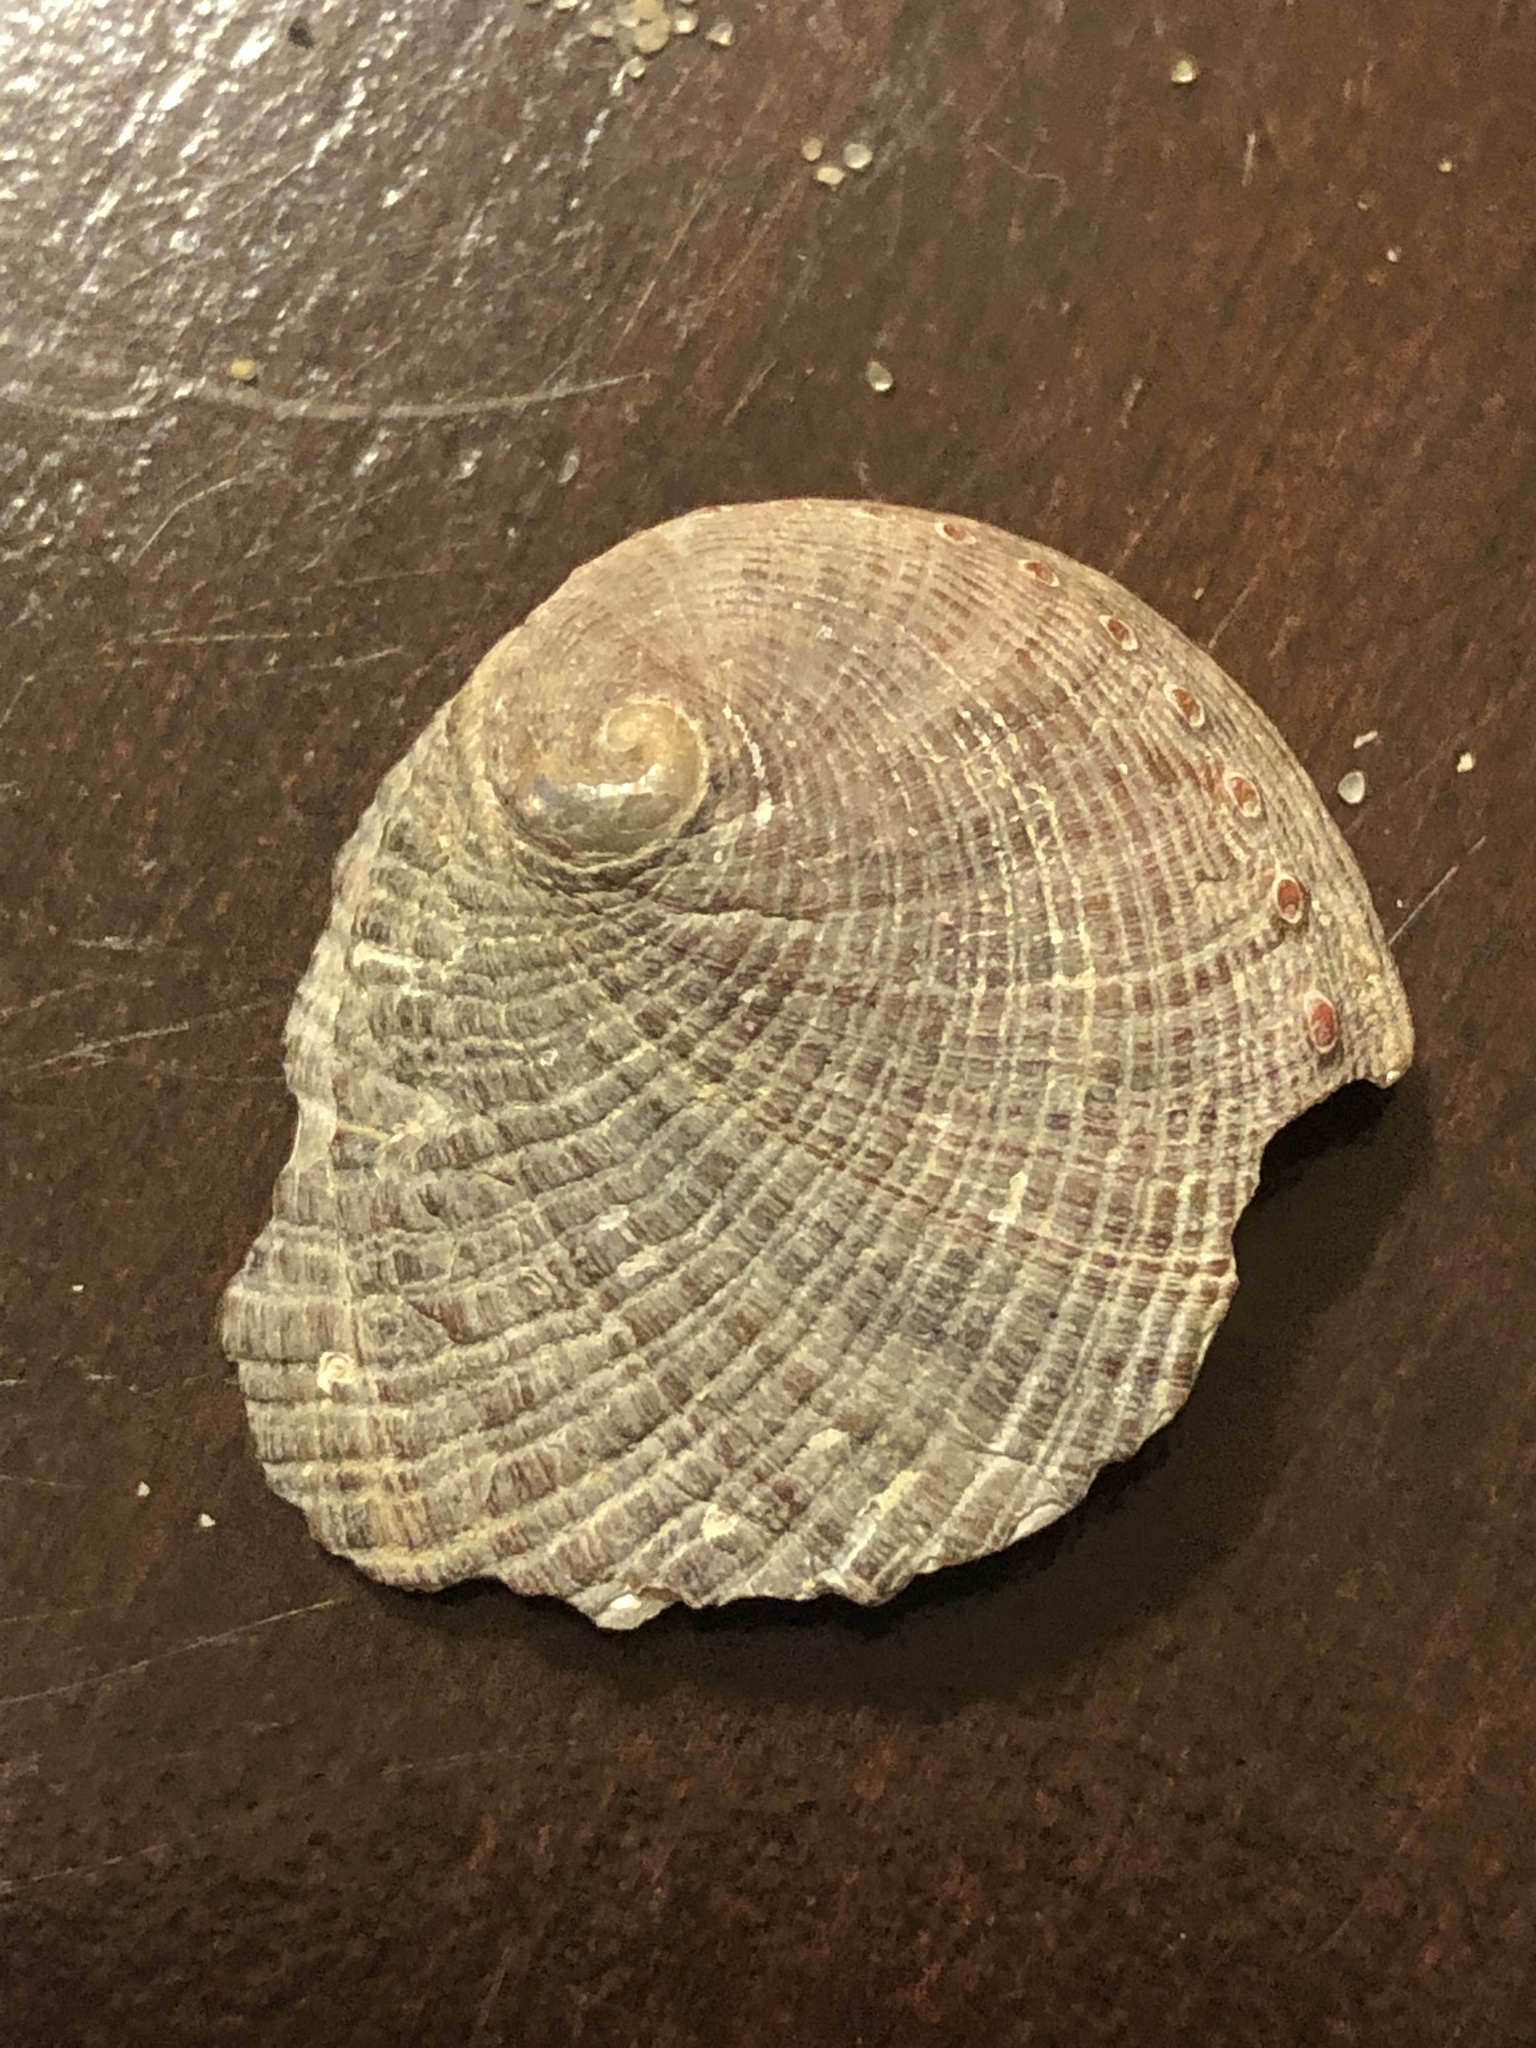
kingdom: Animalia
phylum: Mollusca
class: Gastropoda
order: Lepetellida
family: Haliotidae
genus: Haliotis
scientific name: Haliotis fulgens
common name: Green abalone
